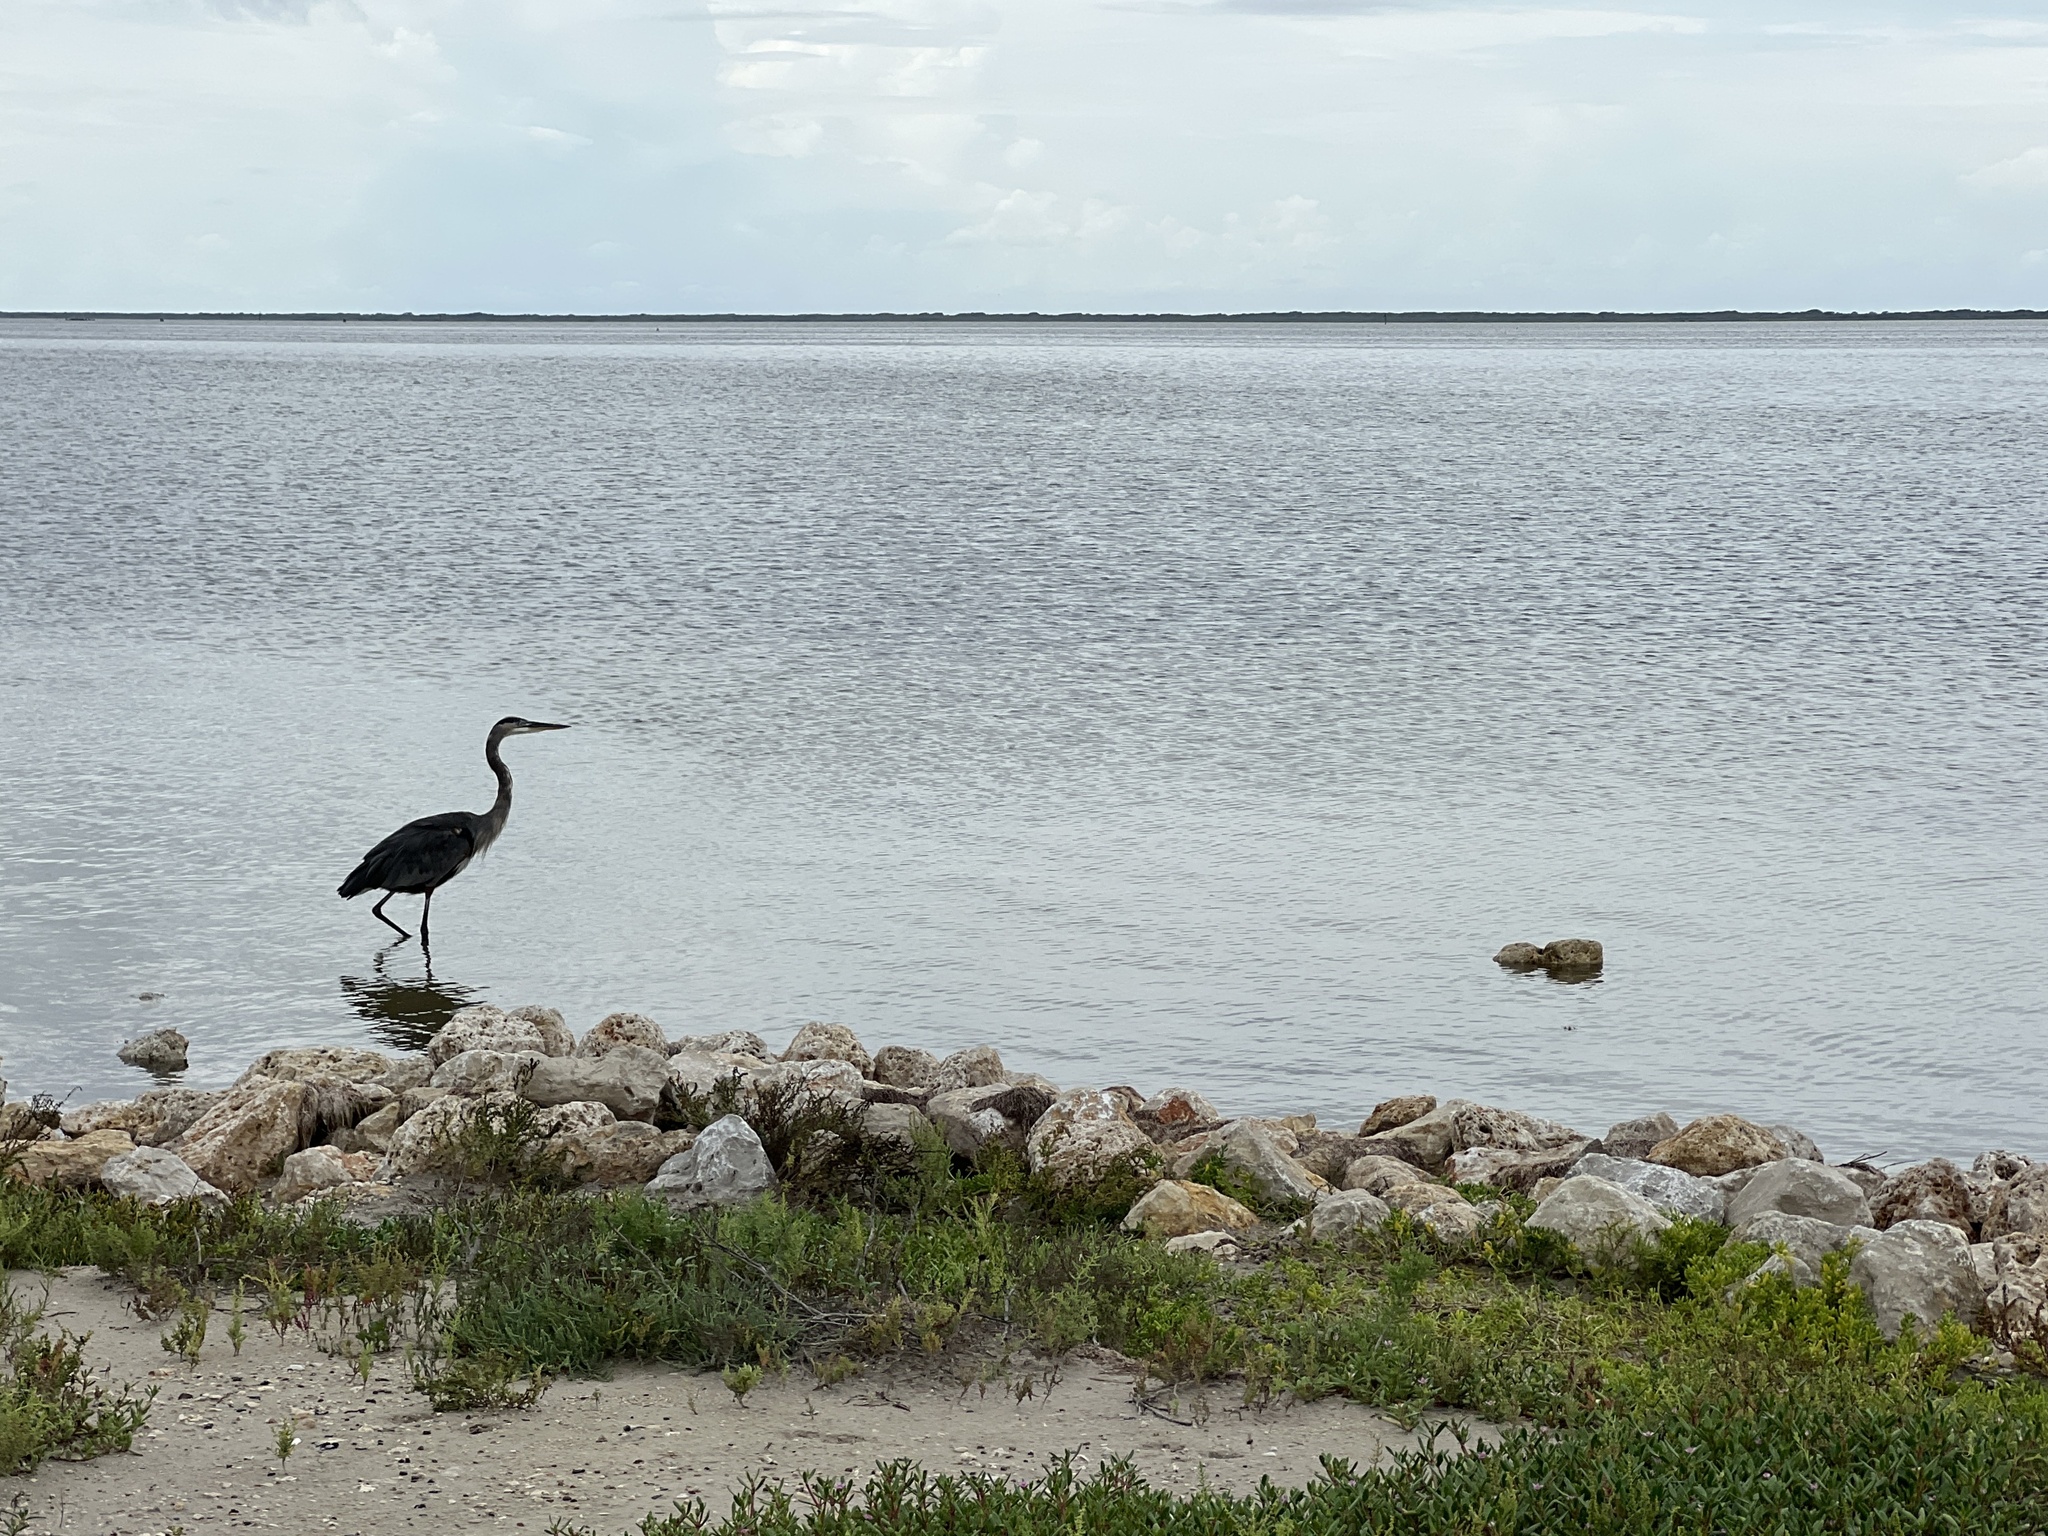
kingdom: Animalia
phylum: Chordata
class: Aves
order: Pelecaniformes
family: Ardeidae
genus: Ardea
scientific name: Ardea herodias
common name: Great blue heron
